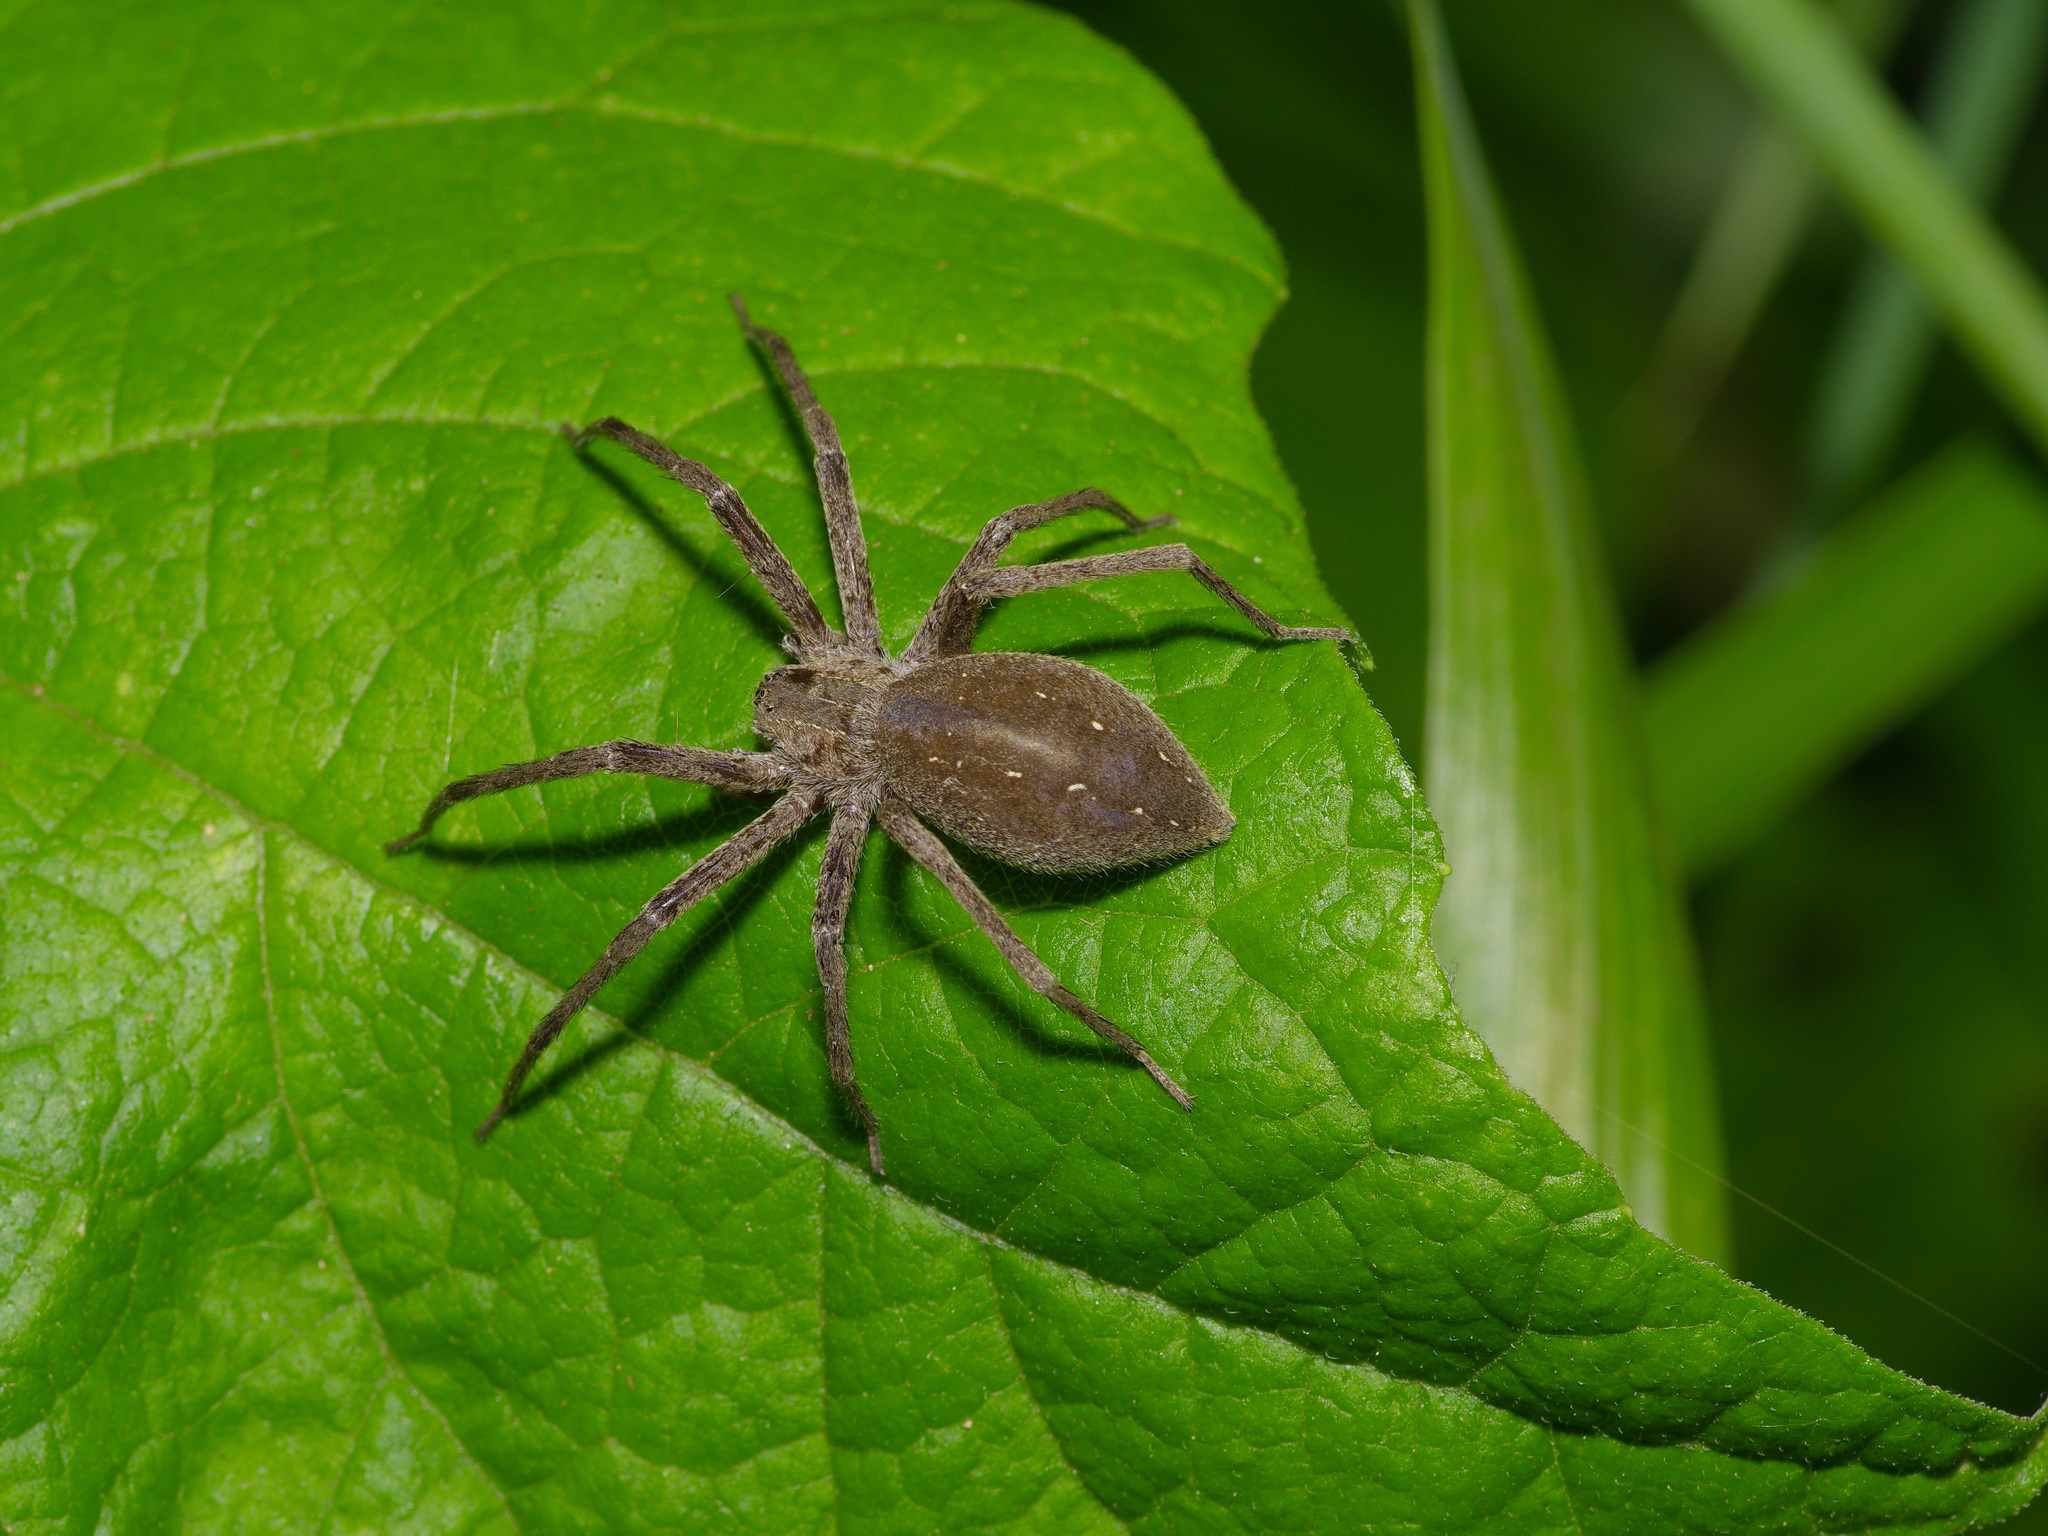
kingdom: Animalia
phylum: Arthropoda
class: Arachnida
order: Araneae
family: Pisauridae
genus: Pisaurina
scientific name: Pisaurina mira
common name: American nursery web spider
